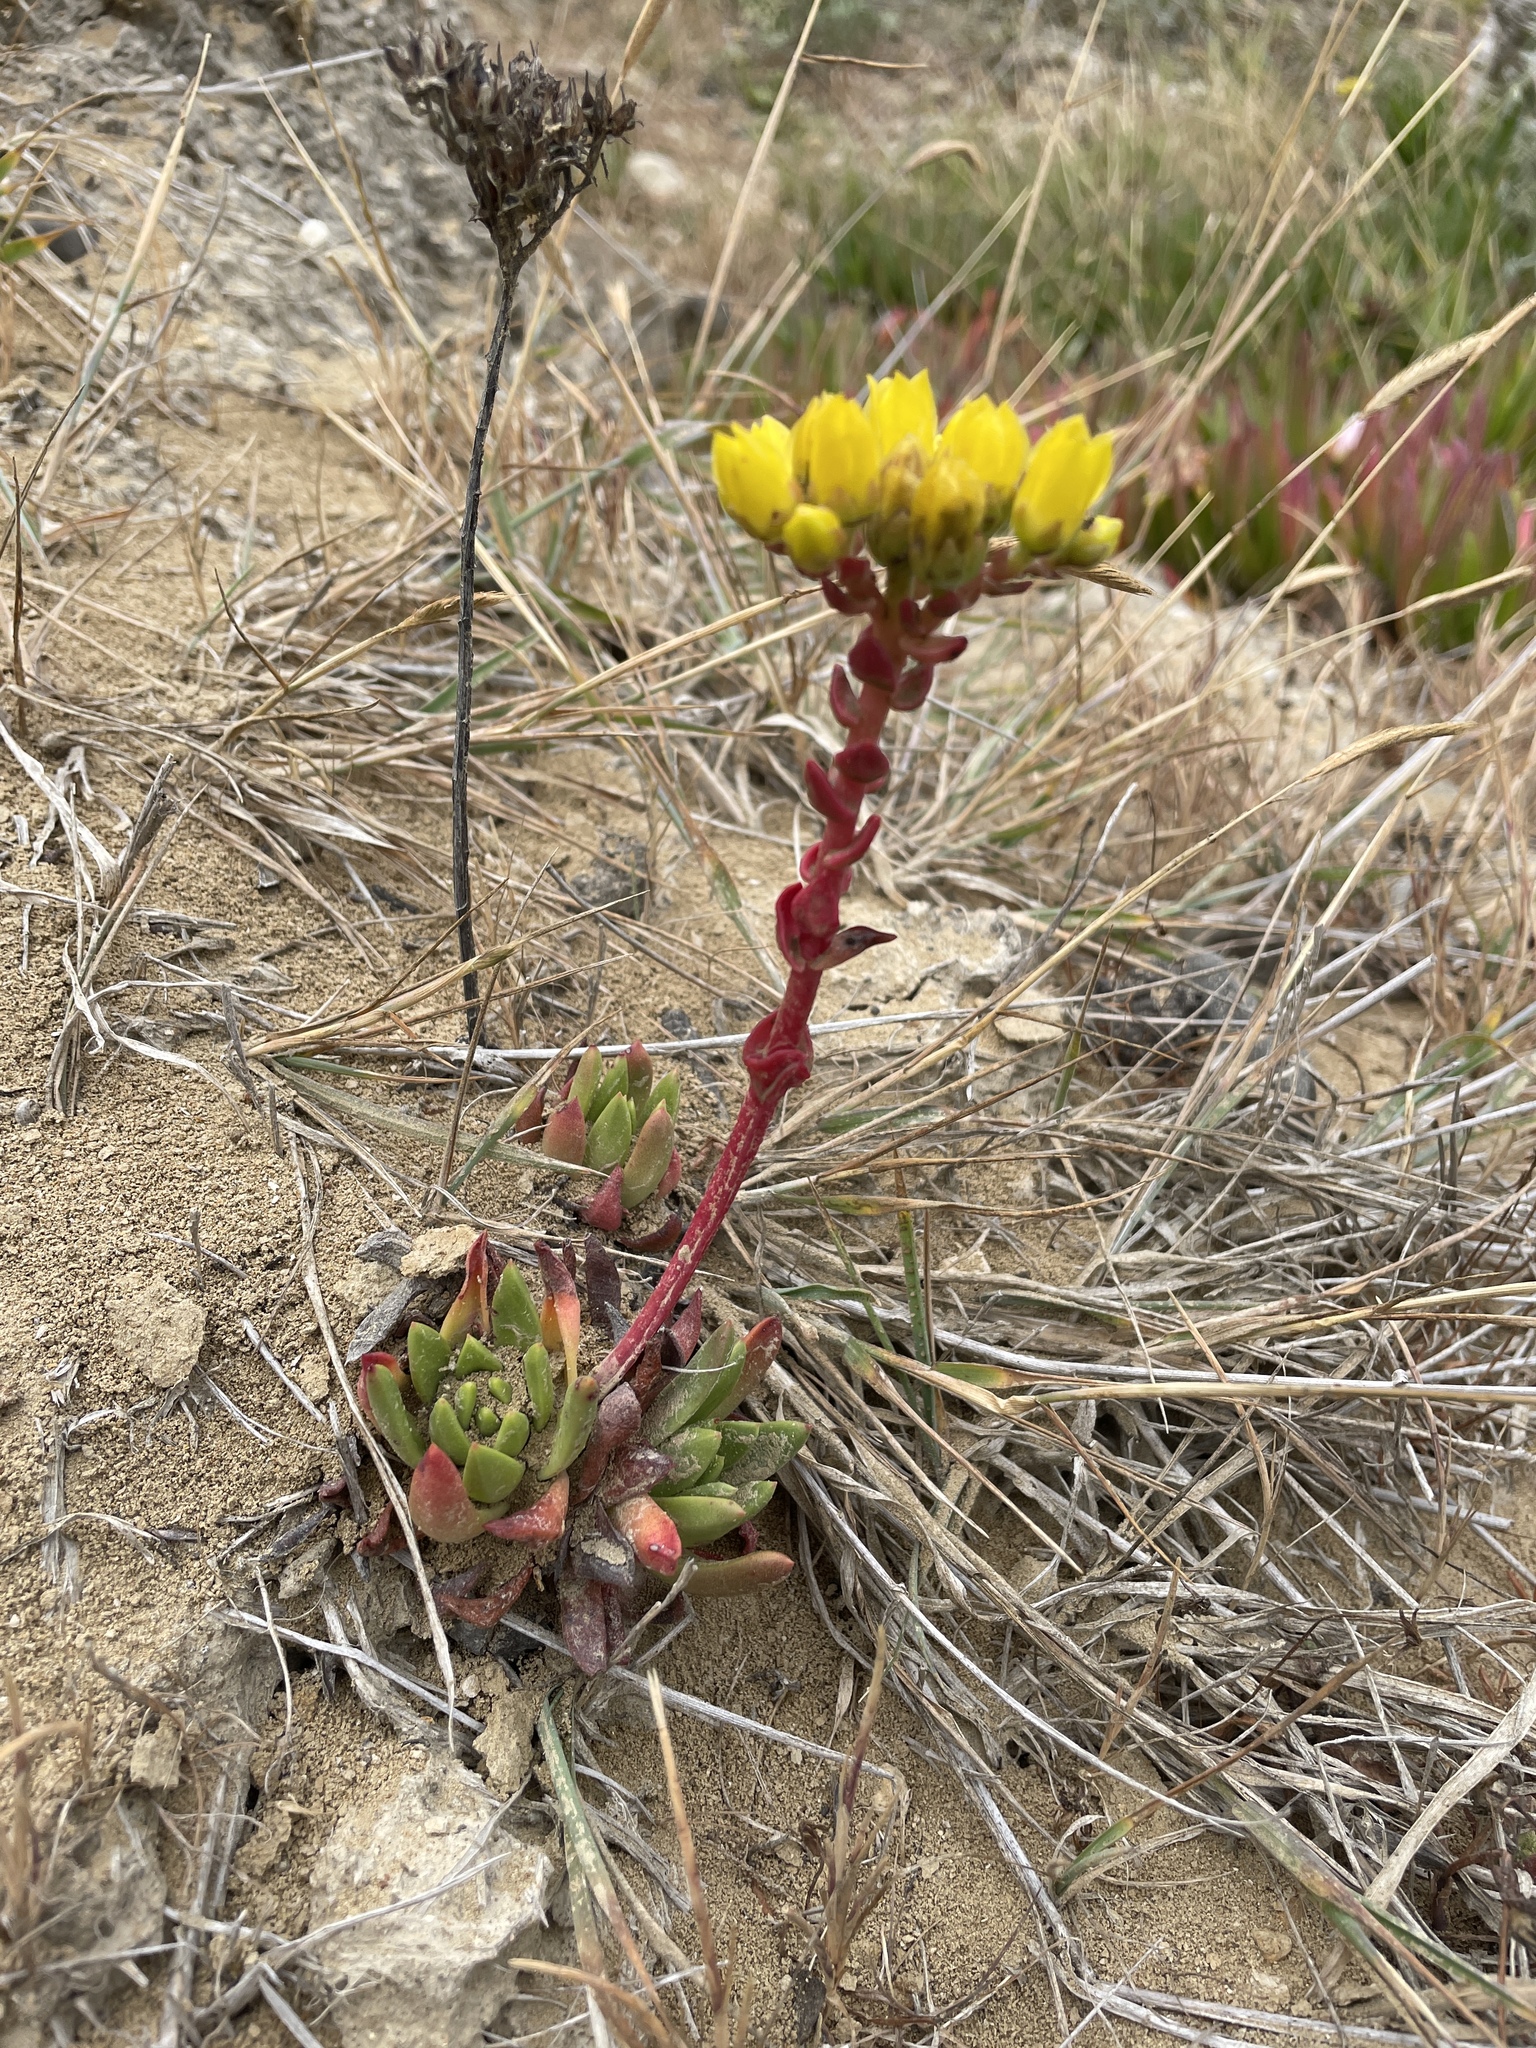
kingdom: Plantae
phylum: Tracheophyta
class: Magnoliopsida
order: Saxifragales
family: Crassulaceae
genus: Dudleya
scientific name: Dudleya caespitosa
